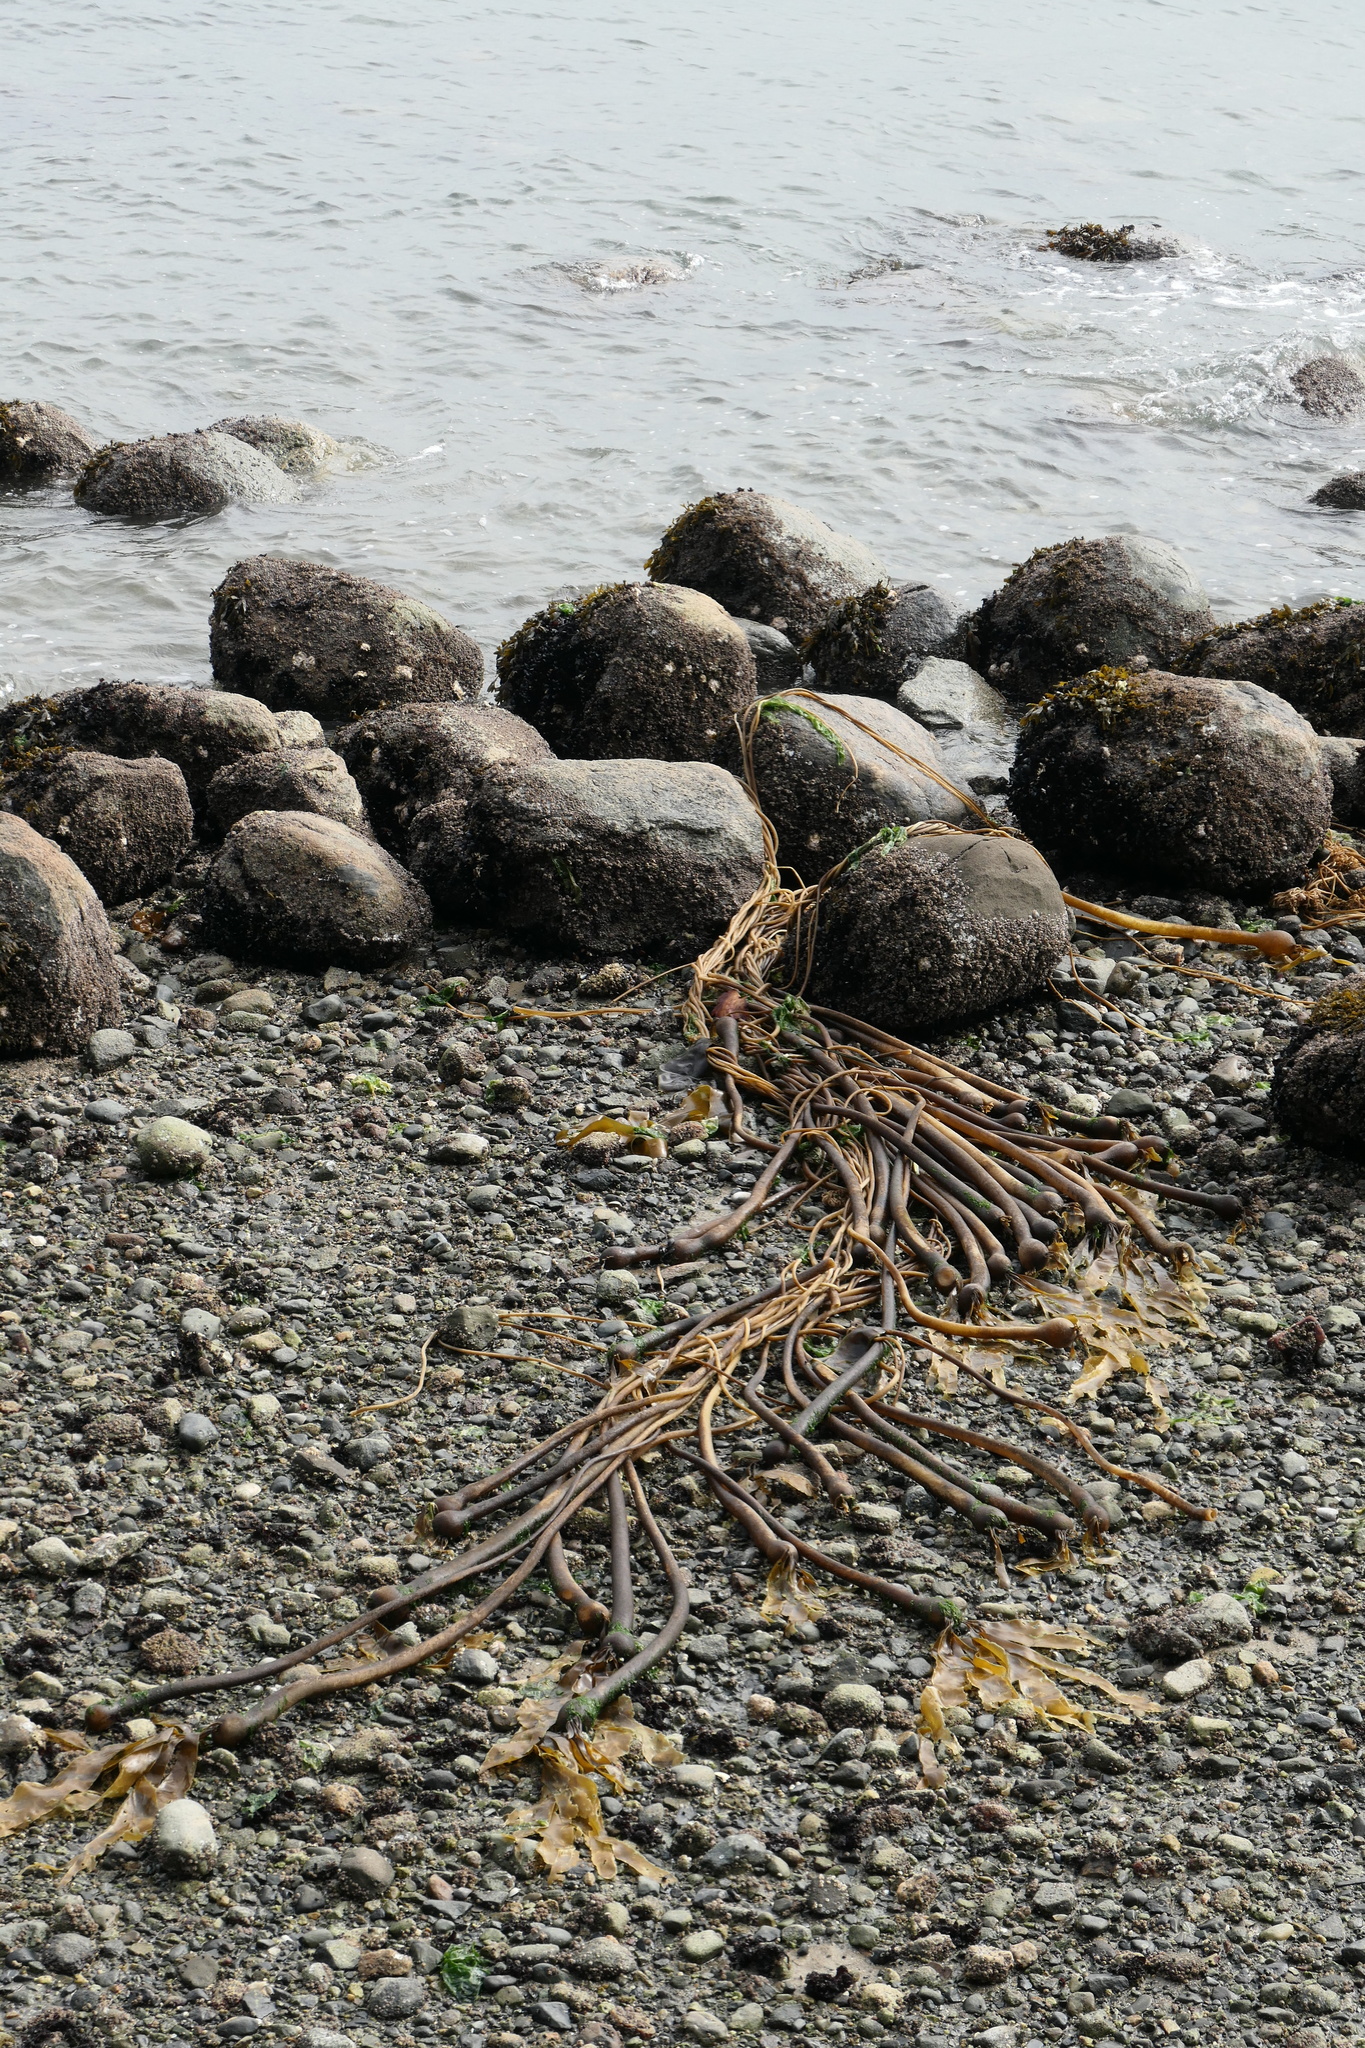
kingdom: Chromista
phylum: Ochrophyta
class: Phaeophyceae
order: Laminariales
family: Laminariaceae
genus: Nereocystis
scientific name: Nereocystis luetkeana
